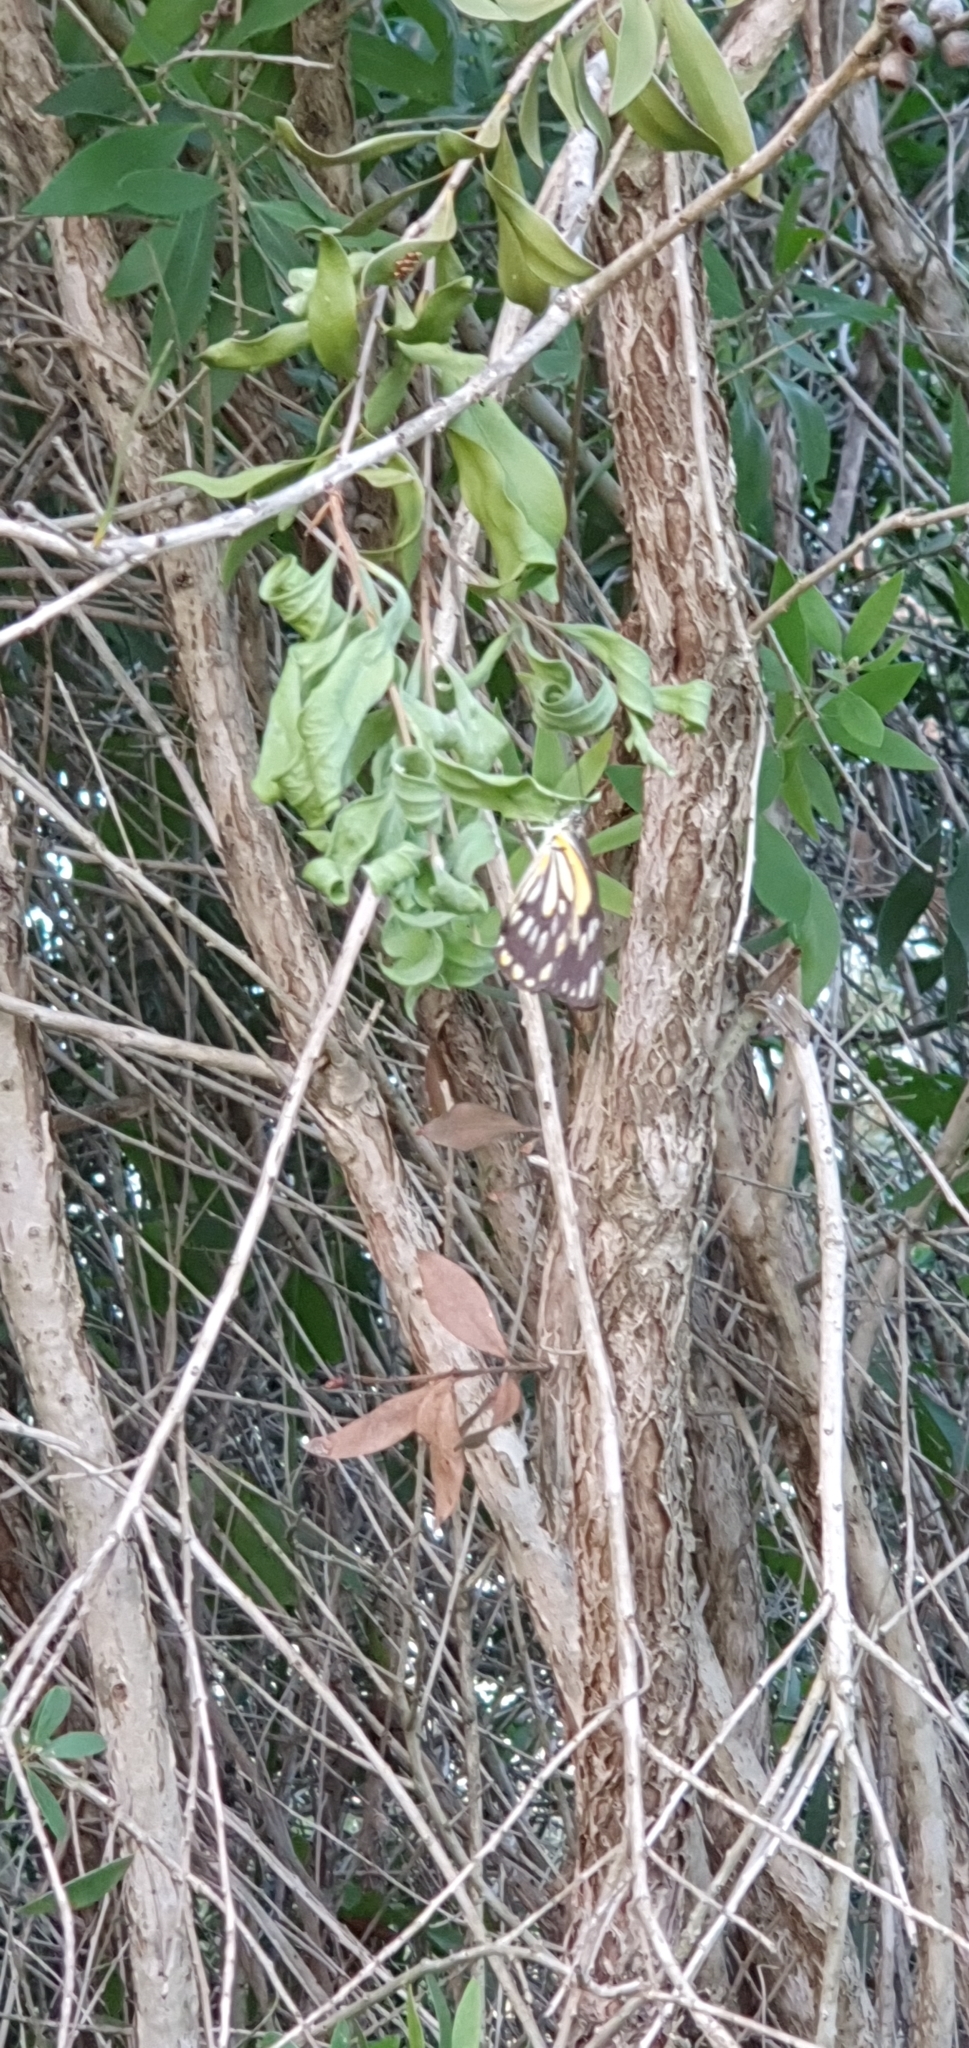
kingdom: Animalia
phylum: Arthropoda
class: Insecta
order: Lepidoptera
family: Pieridae
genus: Belenois
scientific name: Belenois java
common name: Caper white
